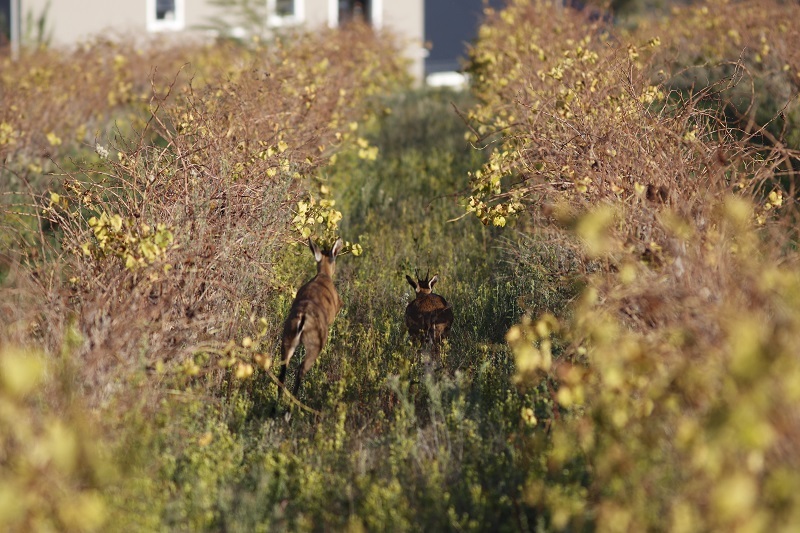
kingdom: Animalia
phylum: Chordata
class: Mammalia
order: Artiodactyla
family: Bovidae
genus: Sylvicapra
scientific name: Sylvicapra grimmia
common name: Bush duiker
